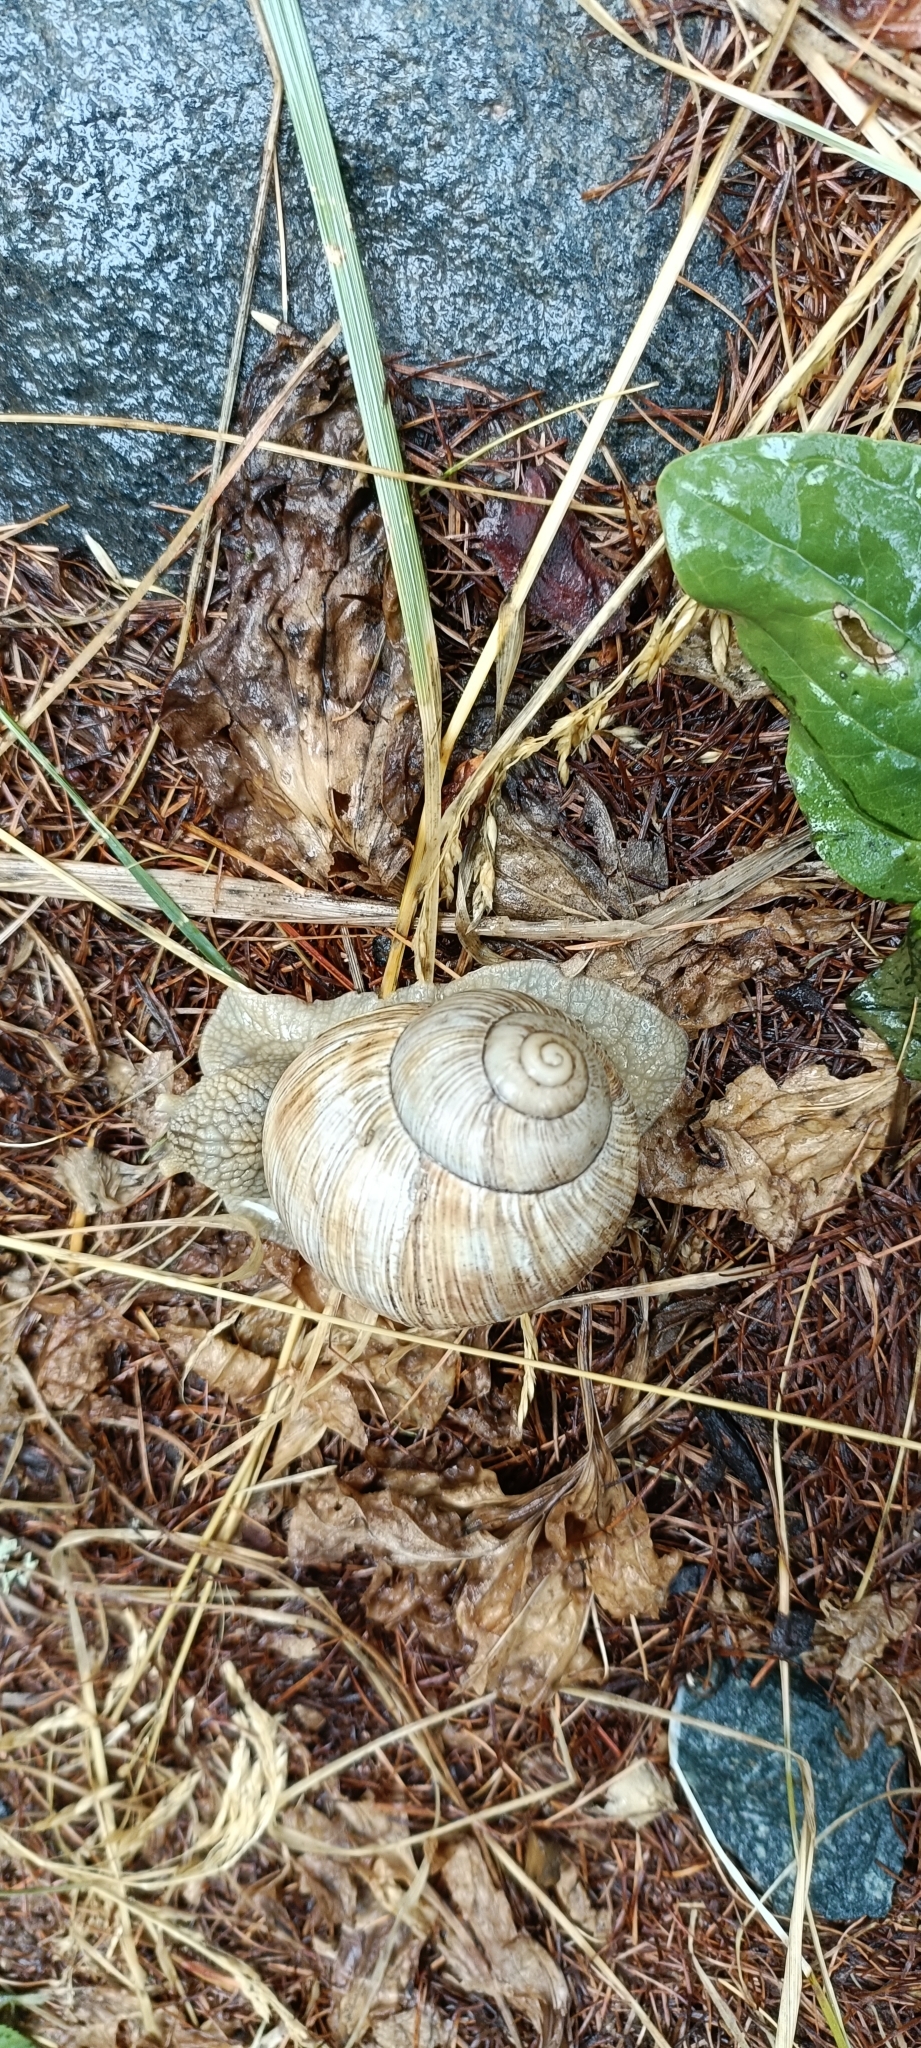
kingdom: Animalia
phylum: Mollusca
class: Gastropoda
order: Stylommatophora
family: Helicidae
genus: Helix
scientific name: Helix pomatia
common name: Roman snail
